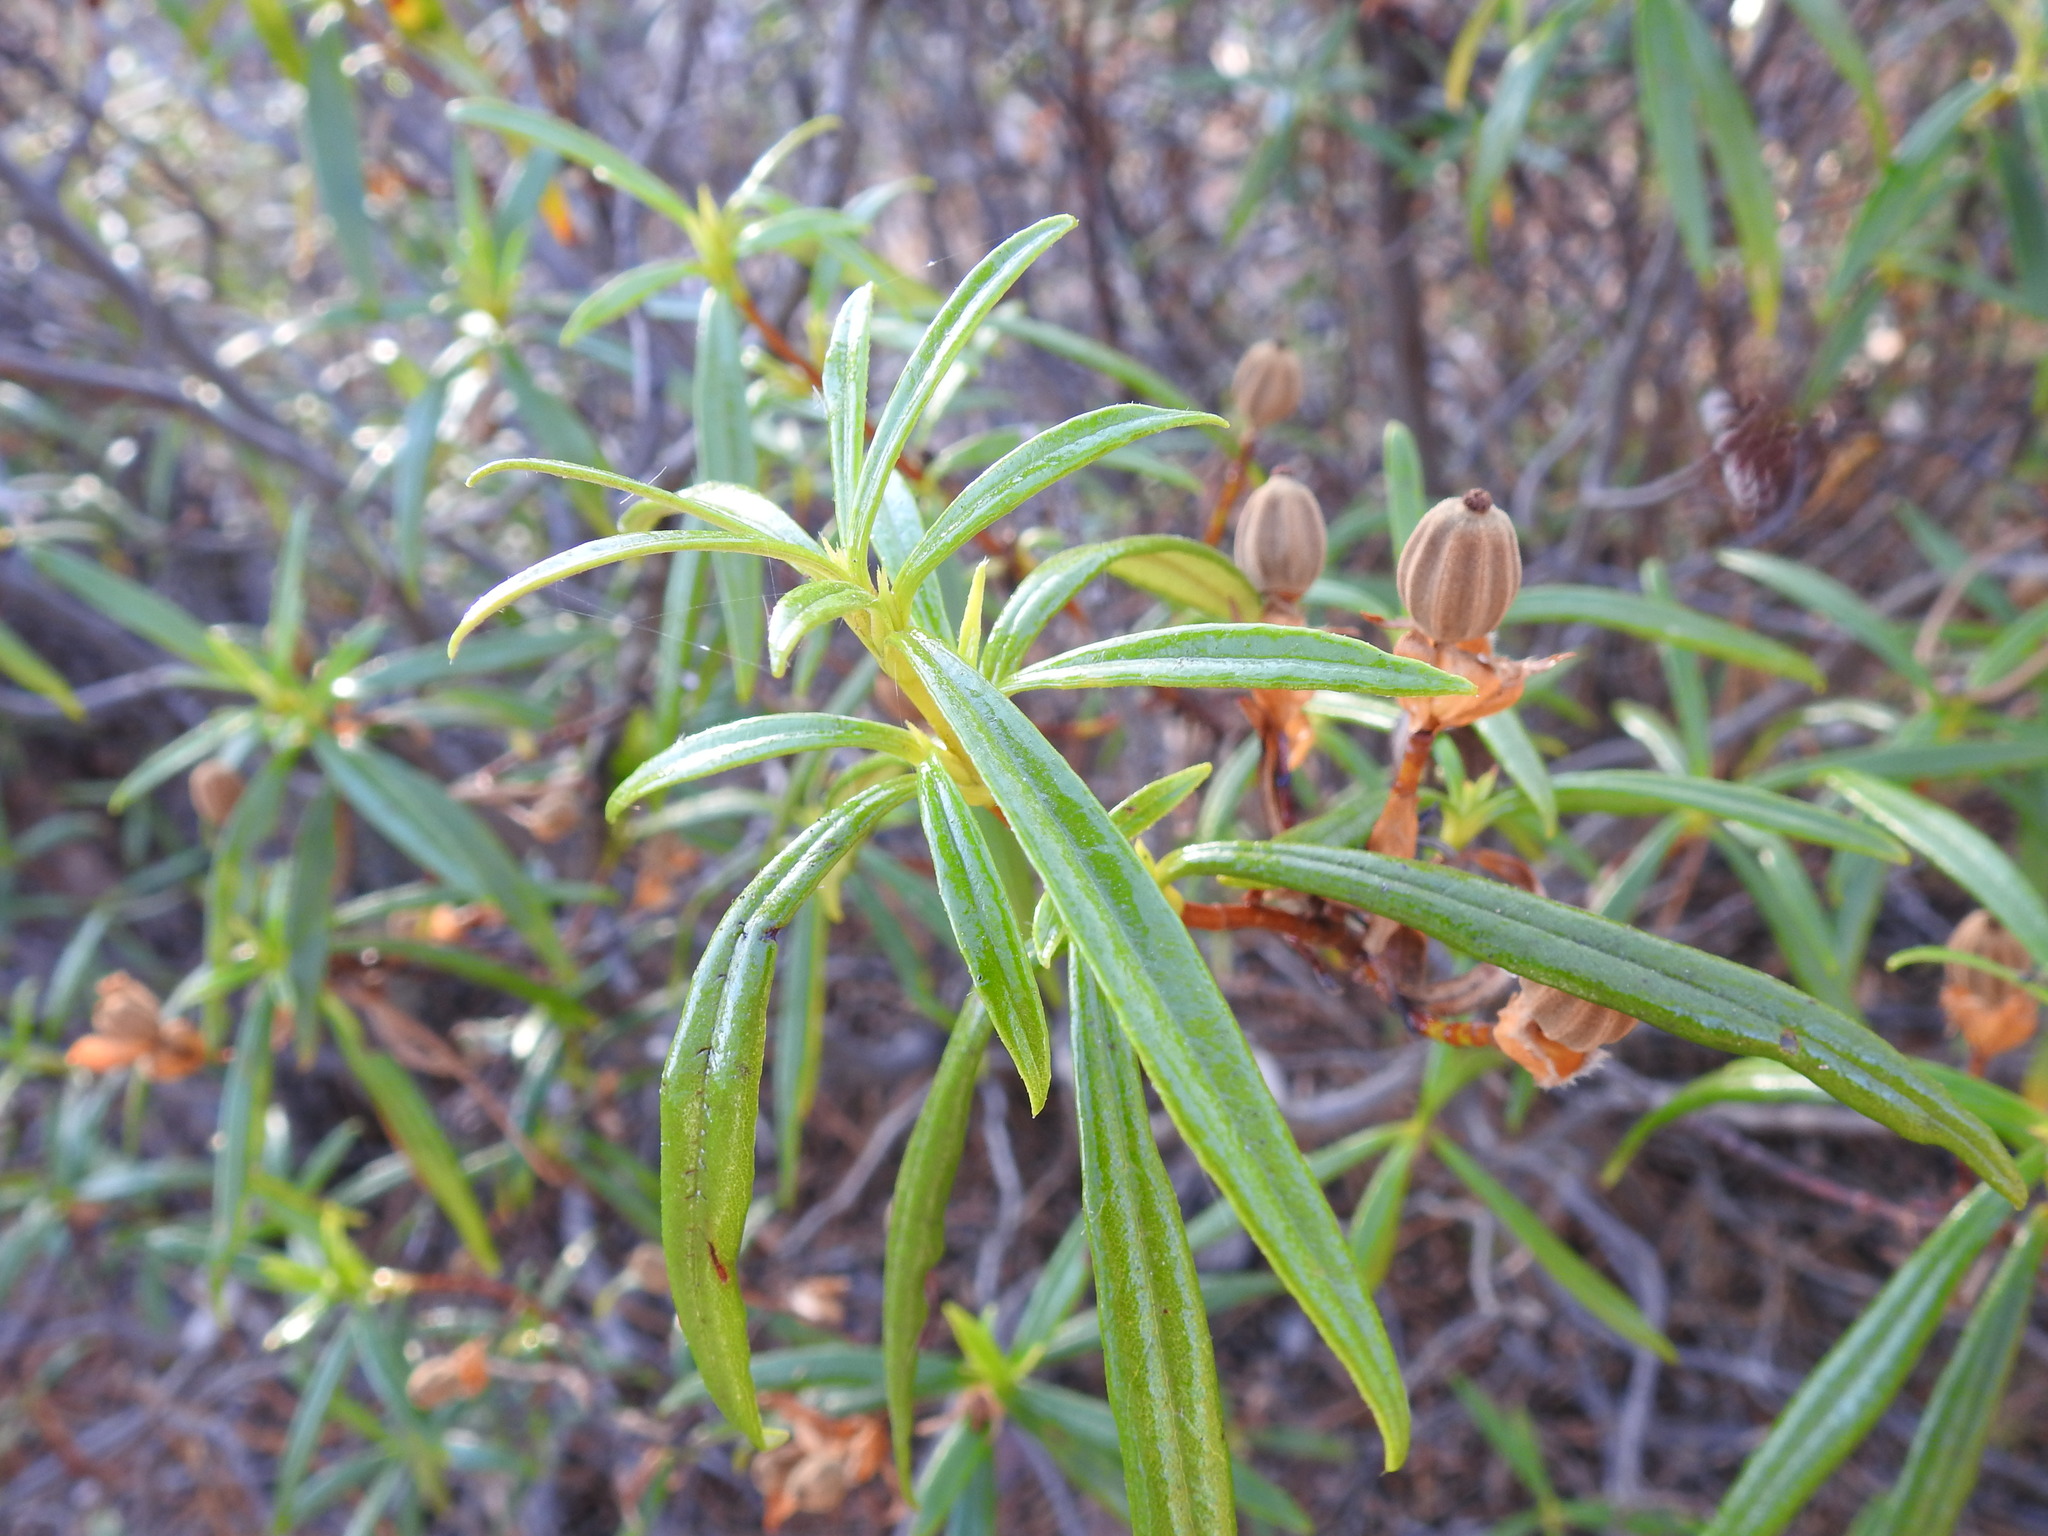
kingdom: Plantae
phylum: Tracheophyta
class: Magnoliopsida
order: Malvales
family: Cistaceae
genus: Cistus
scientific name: Cistus ladanifer
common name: Common gum cistus
